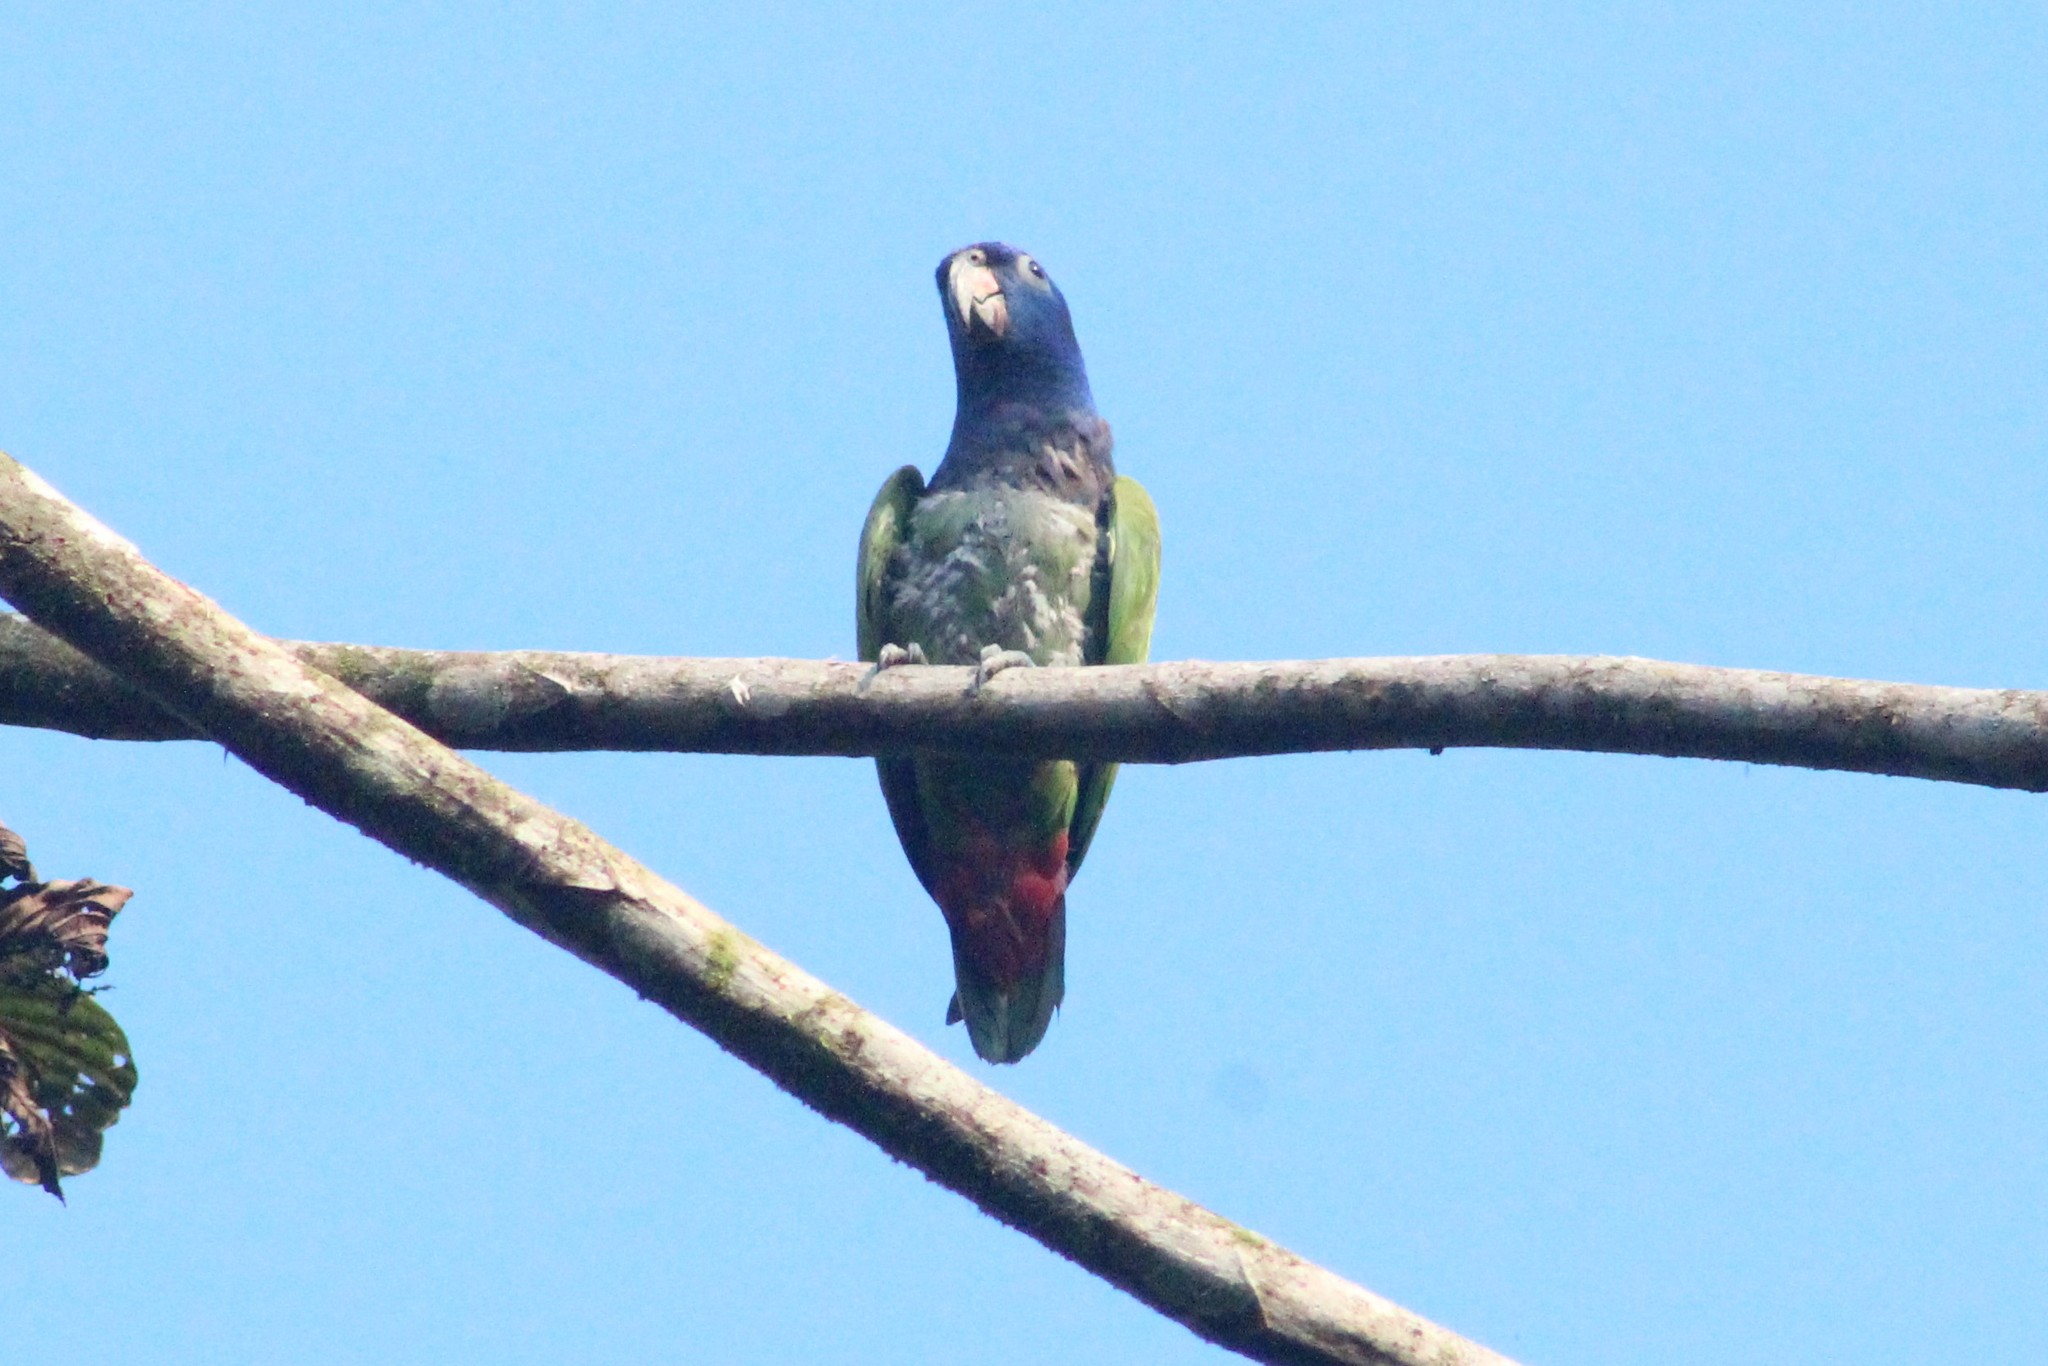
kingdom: Animalia
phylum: Chordata
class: Aves
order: Psittaciformes
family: Psittacidae
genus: Pionus
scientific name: Pionus menstruus
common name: Blue-headed parrot
